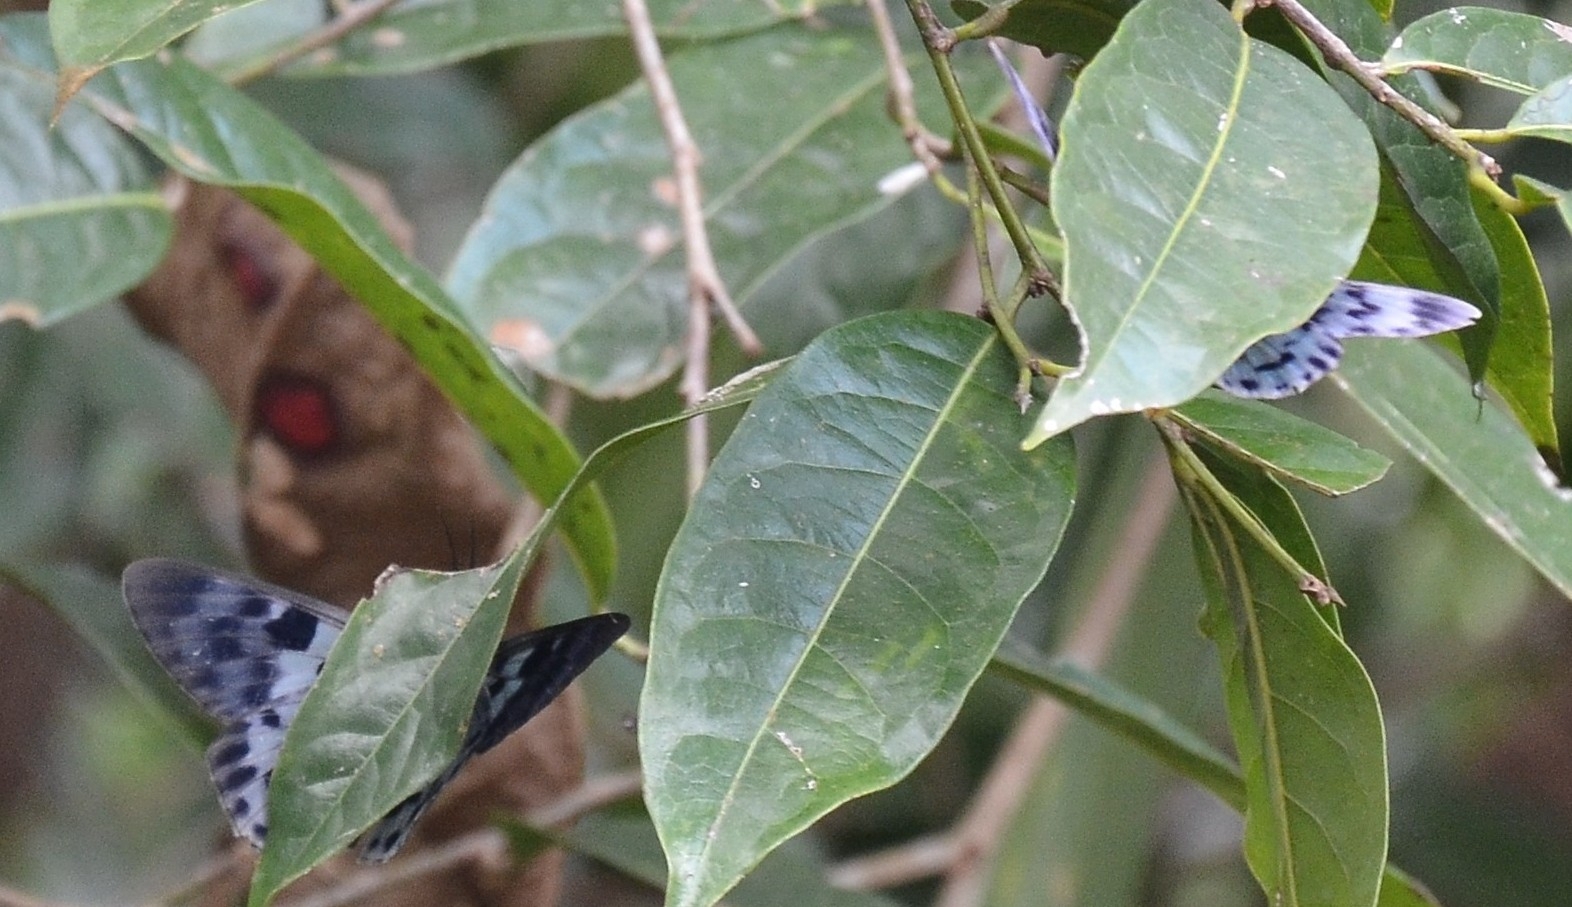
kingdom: Animalia
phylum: Arthropoda
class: Insecta
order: Lepidoptera
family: Geometridae
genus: Dysphania
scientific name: Dysphania percota
